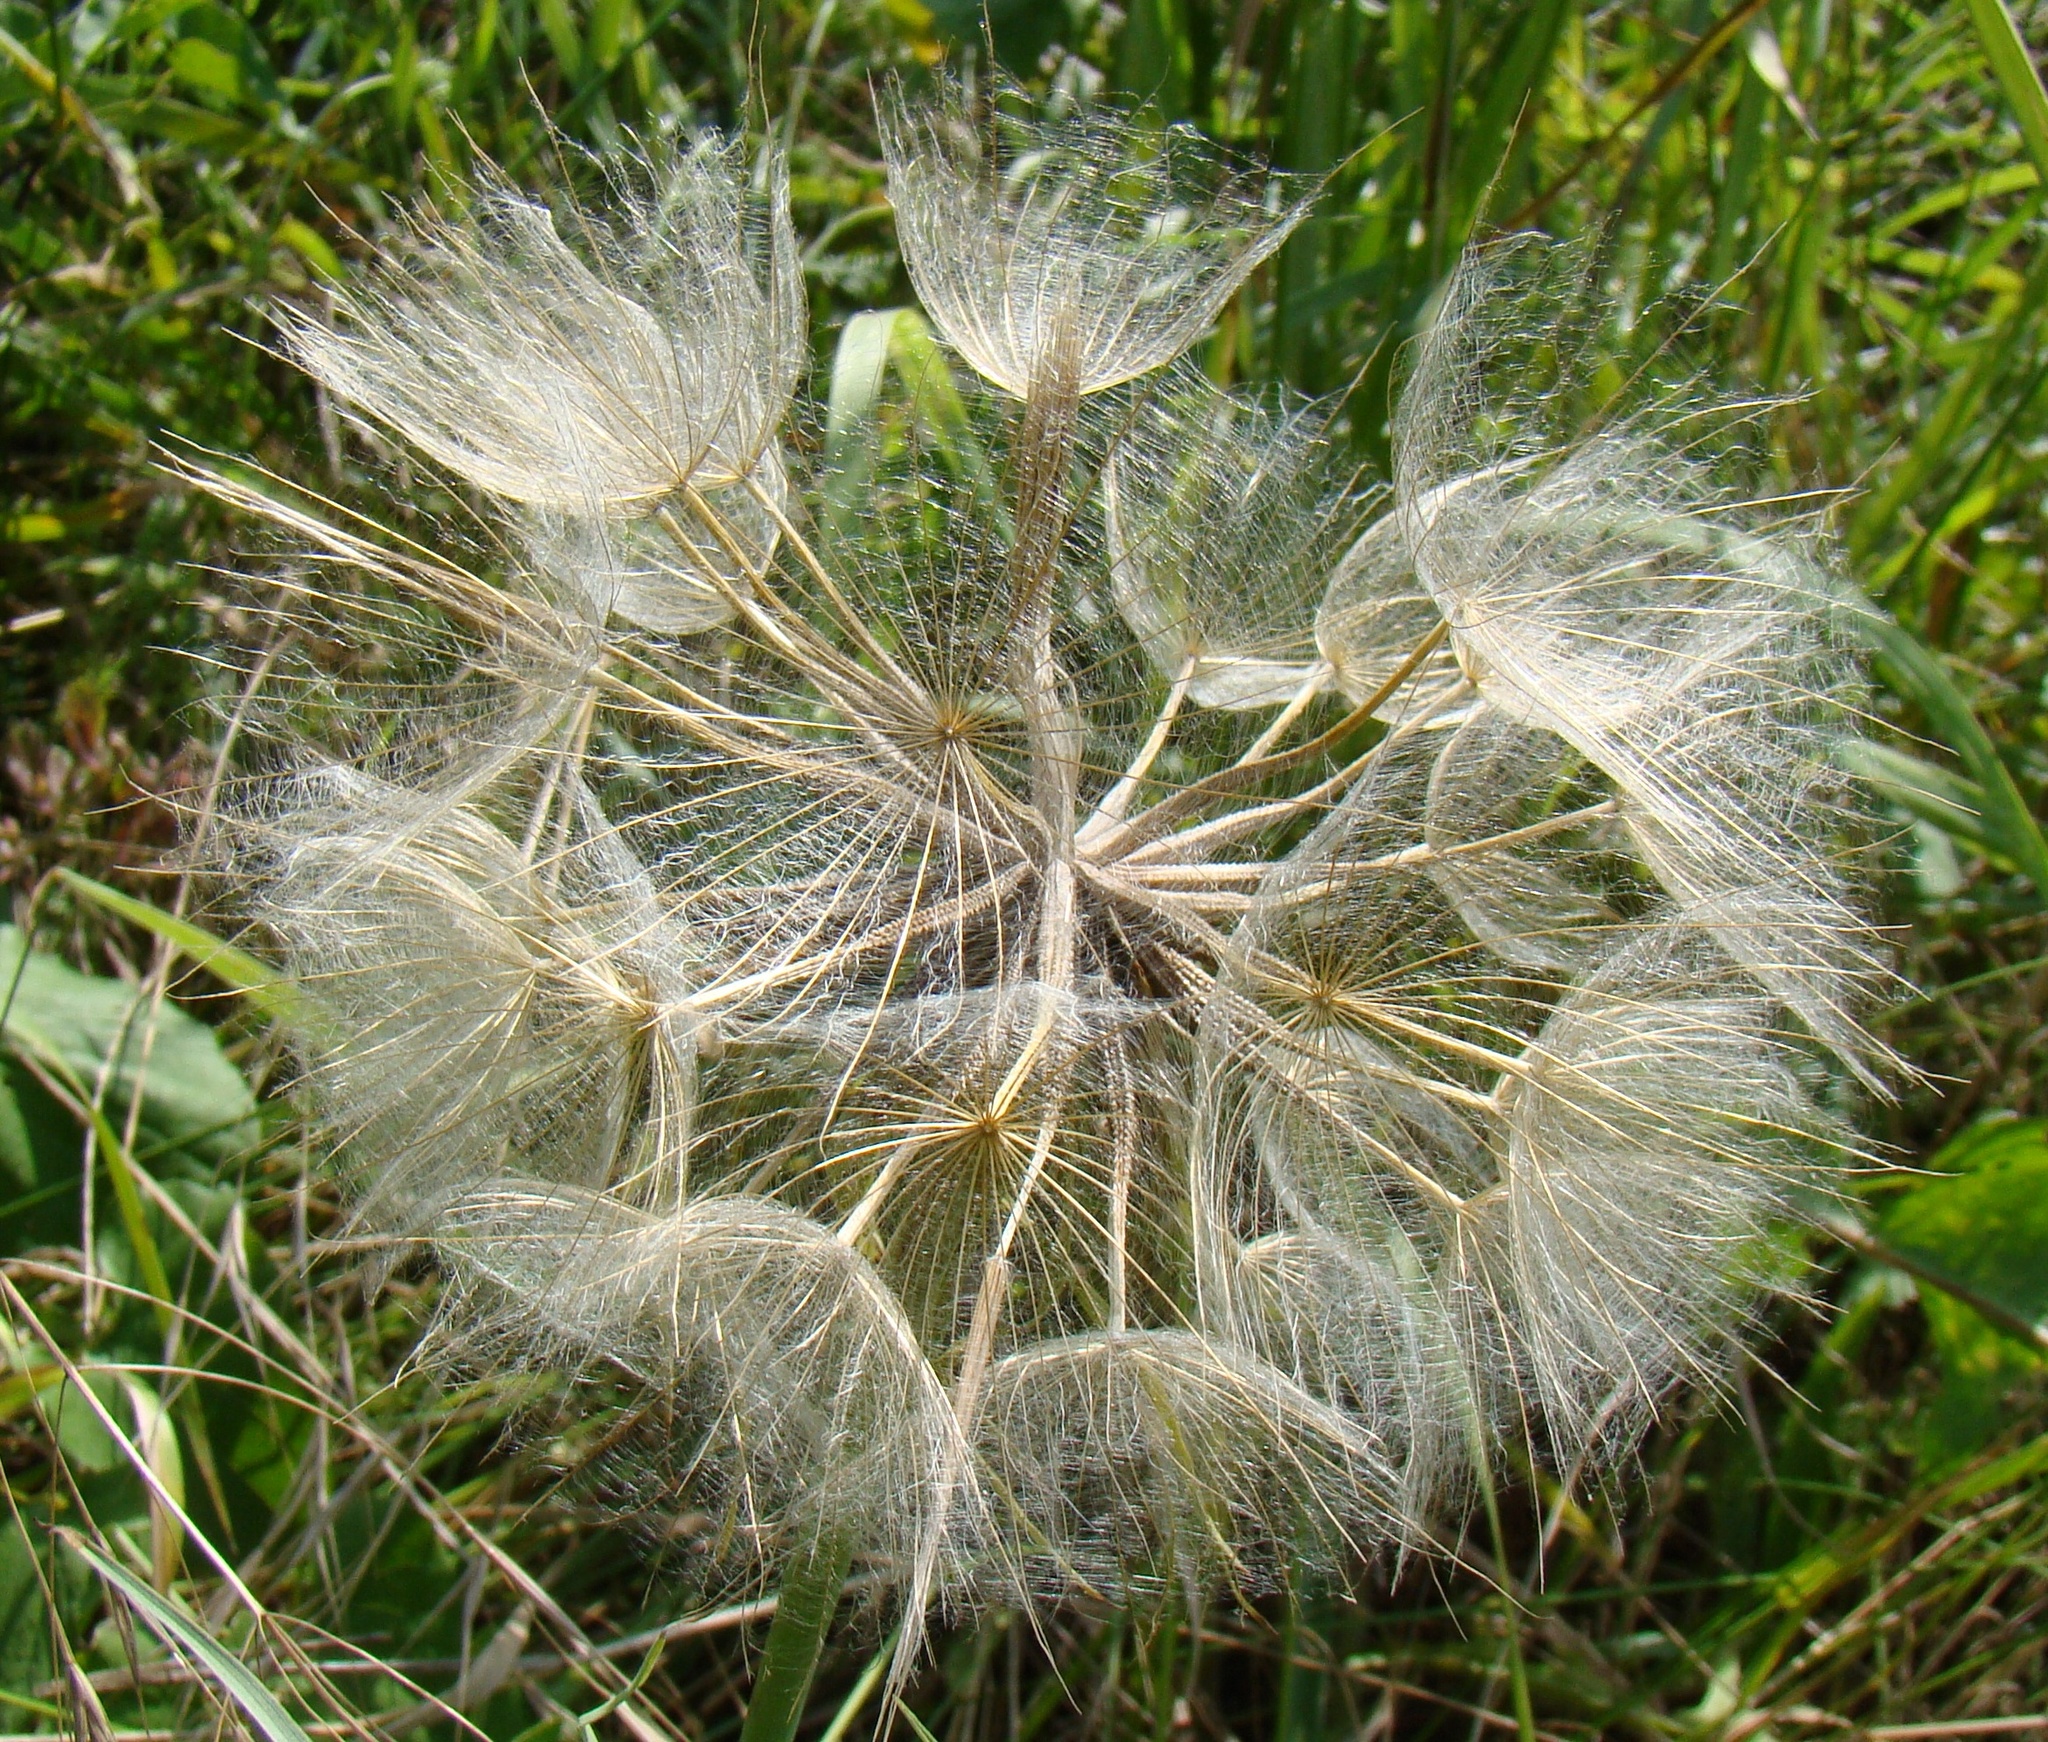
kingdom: Plantae
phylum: Tracheophyta
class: Magnoliopsida
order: Asterales
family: Asteraceae
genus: Tragopogon
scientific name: Tragopogon dubius
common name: Yellow salsify
